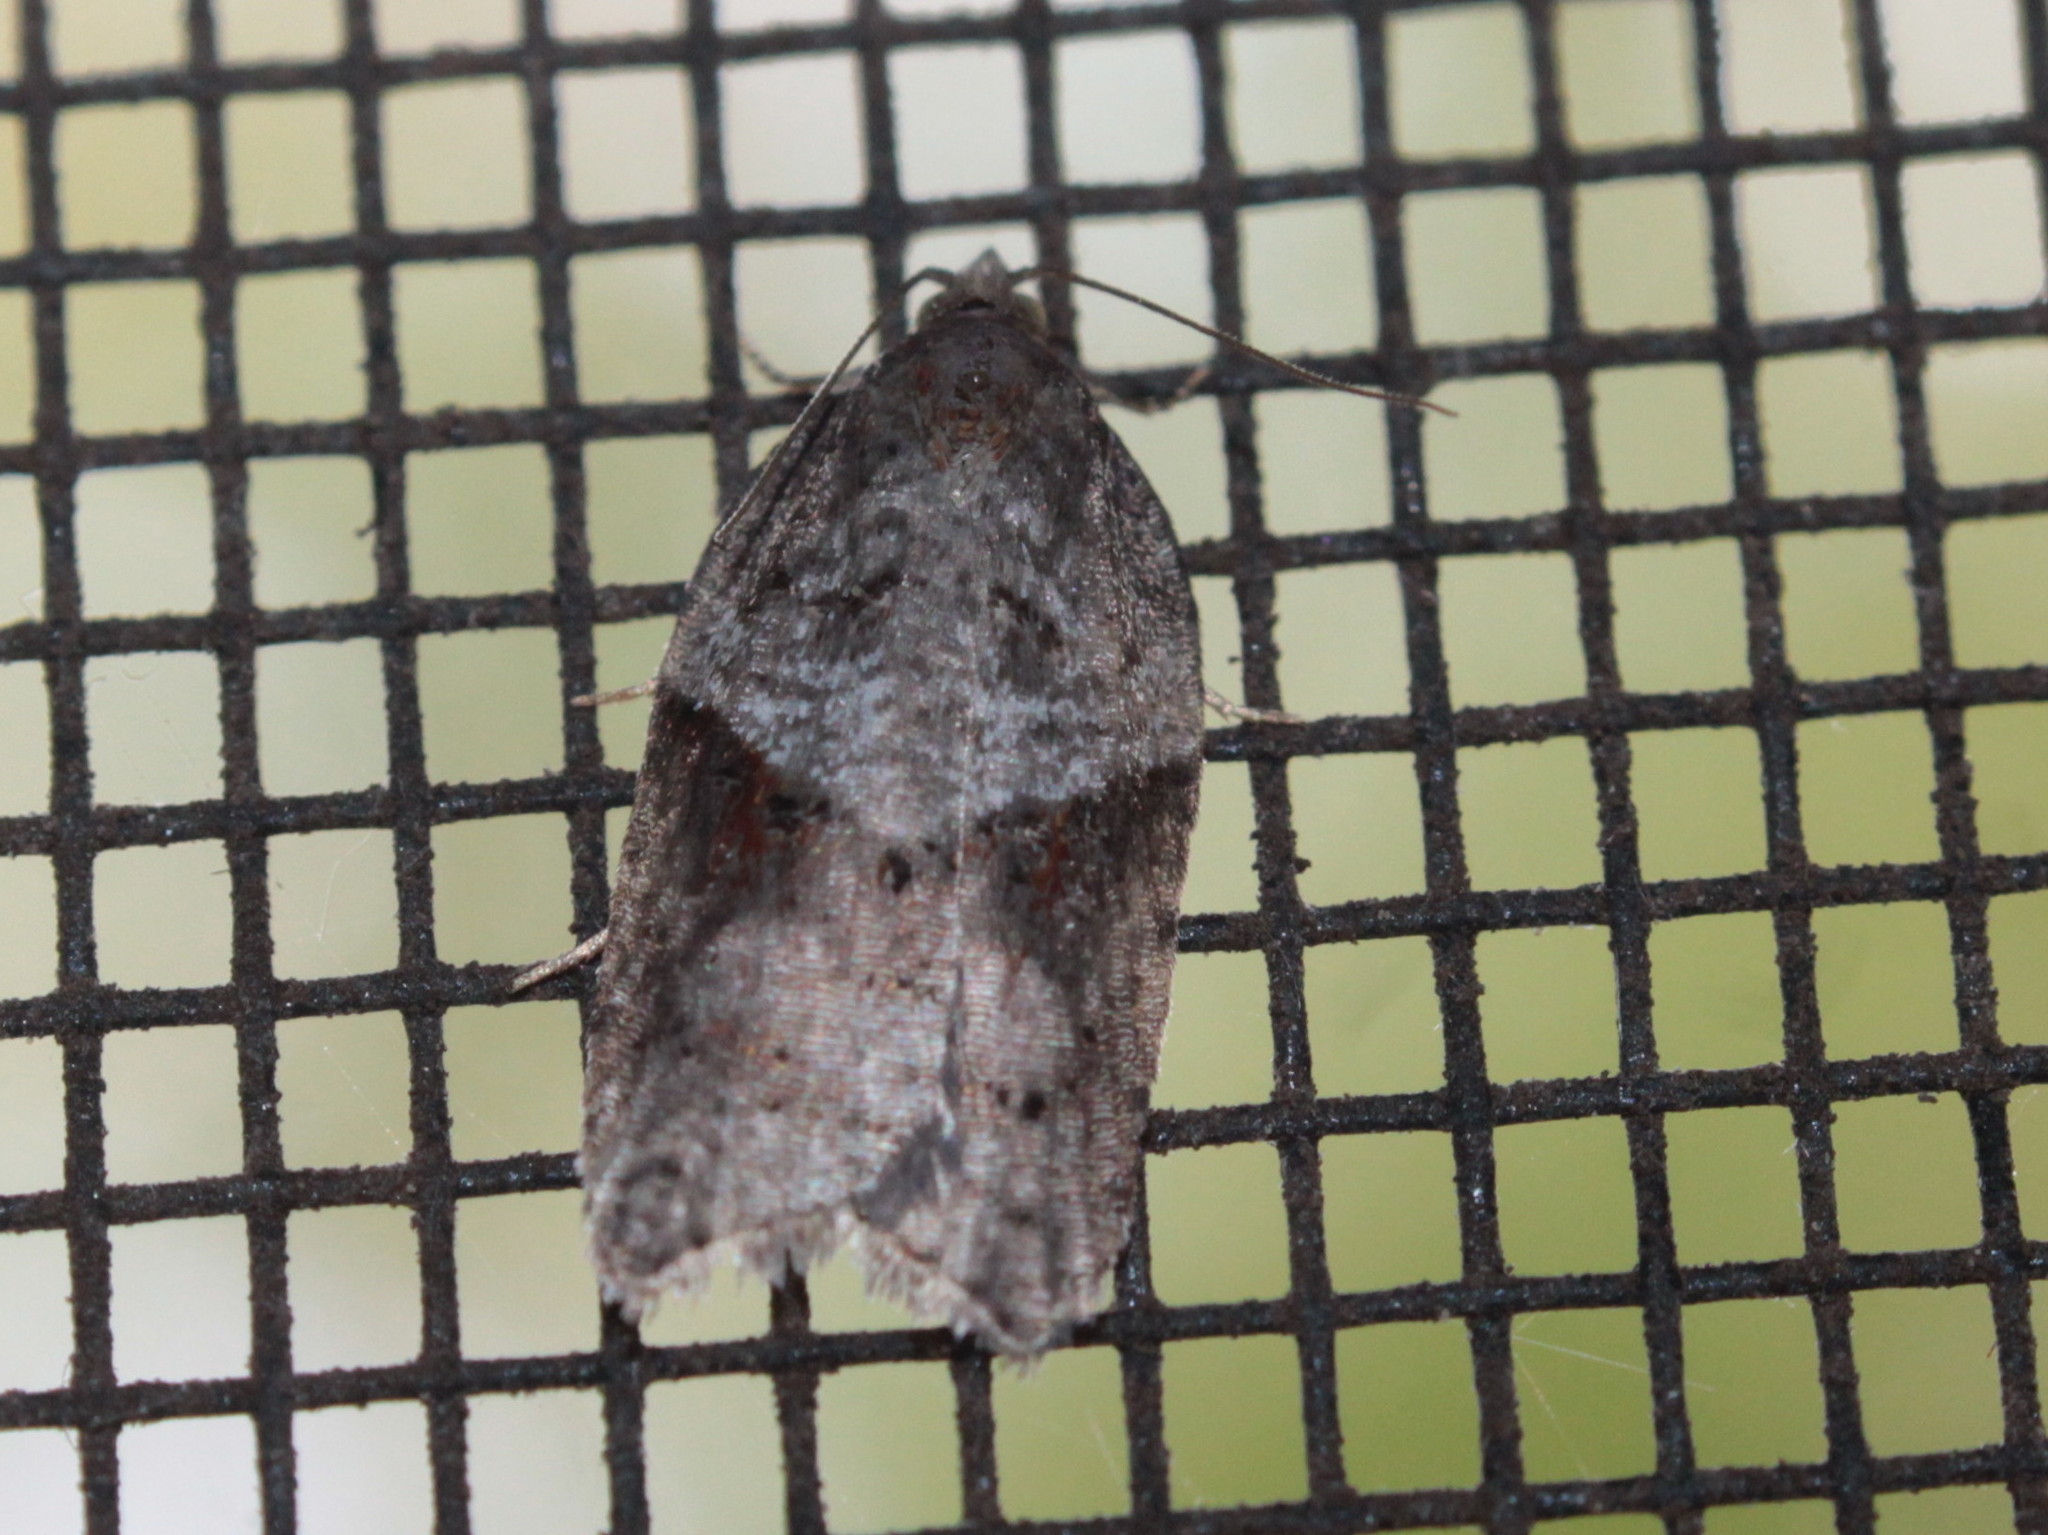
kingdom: Animalia
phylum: Arthropoda
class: Insecta
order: Lepidoptera
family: Tortricidae
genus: Acleris
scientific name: Acleris macdunnoughi
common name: Macdunnough's acleris
